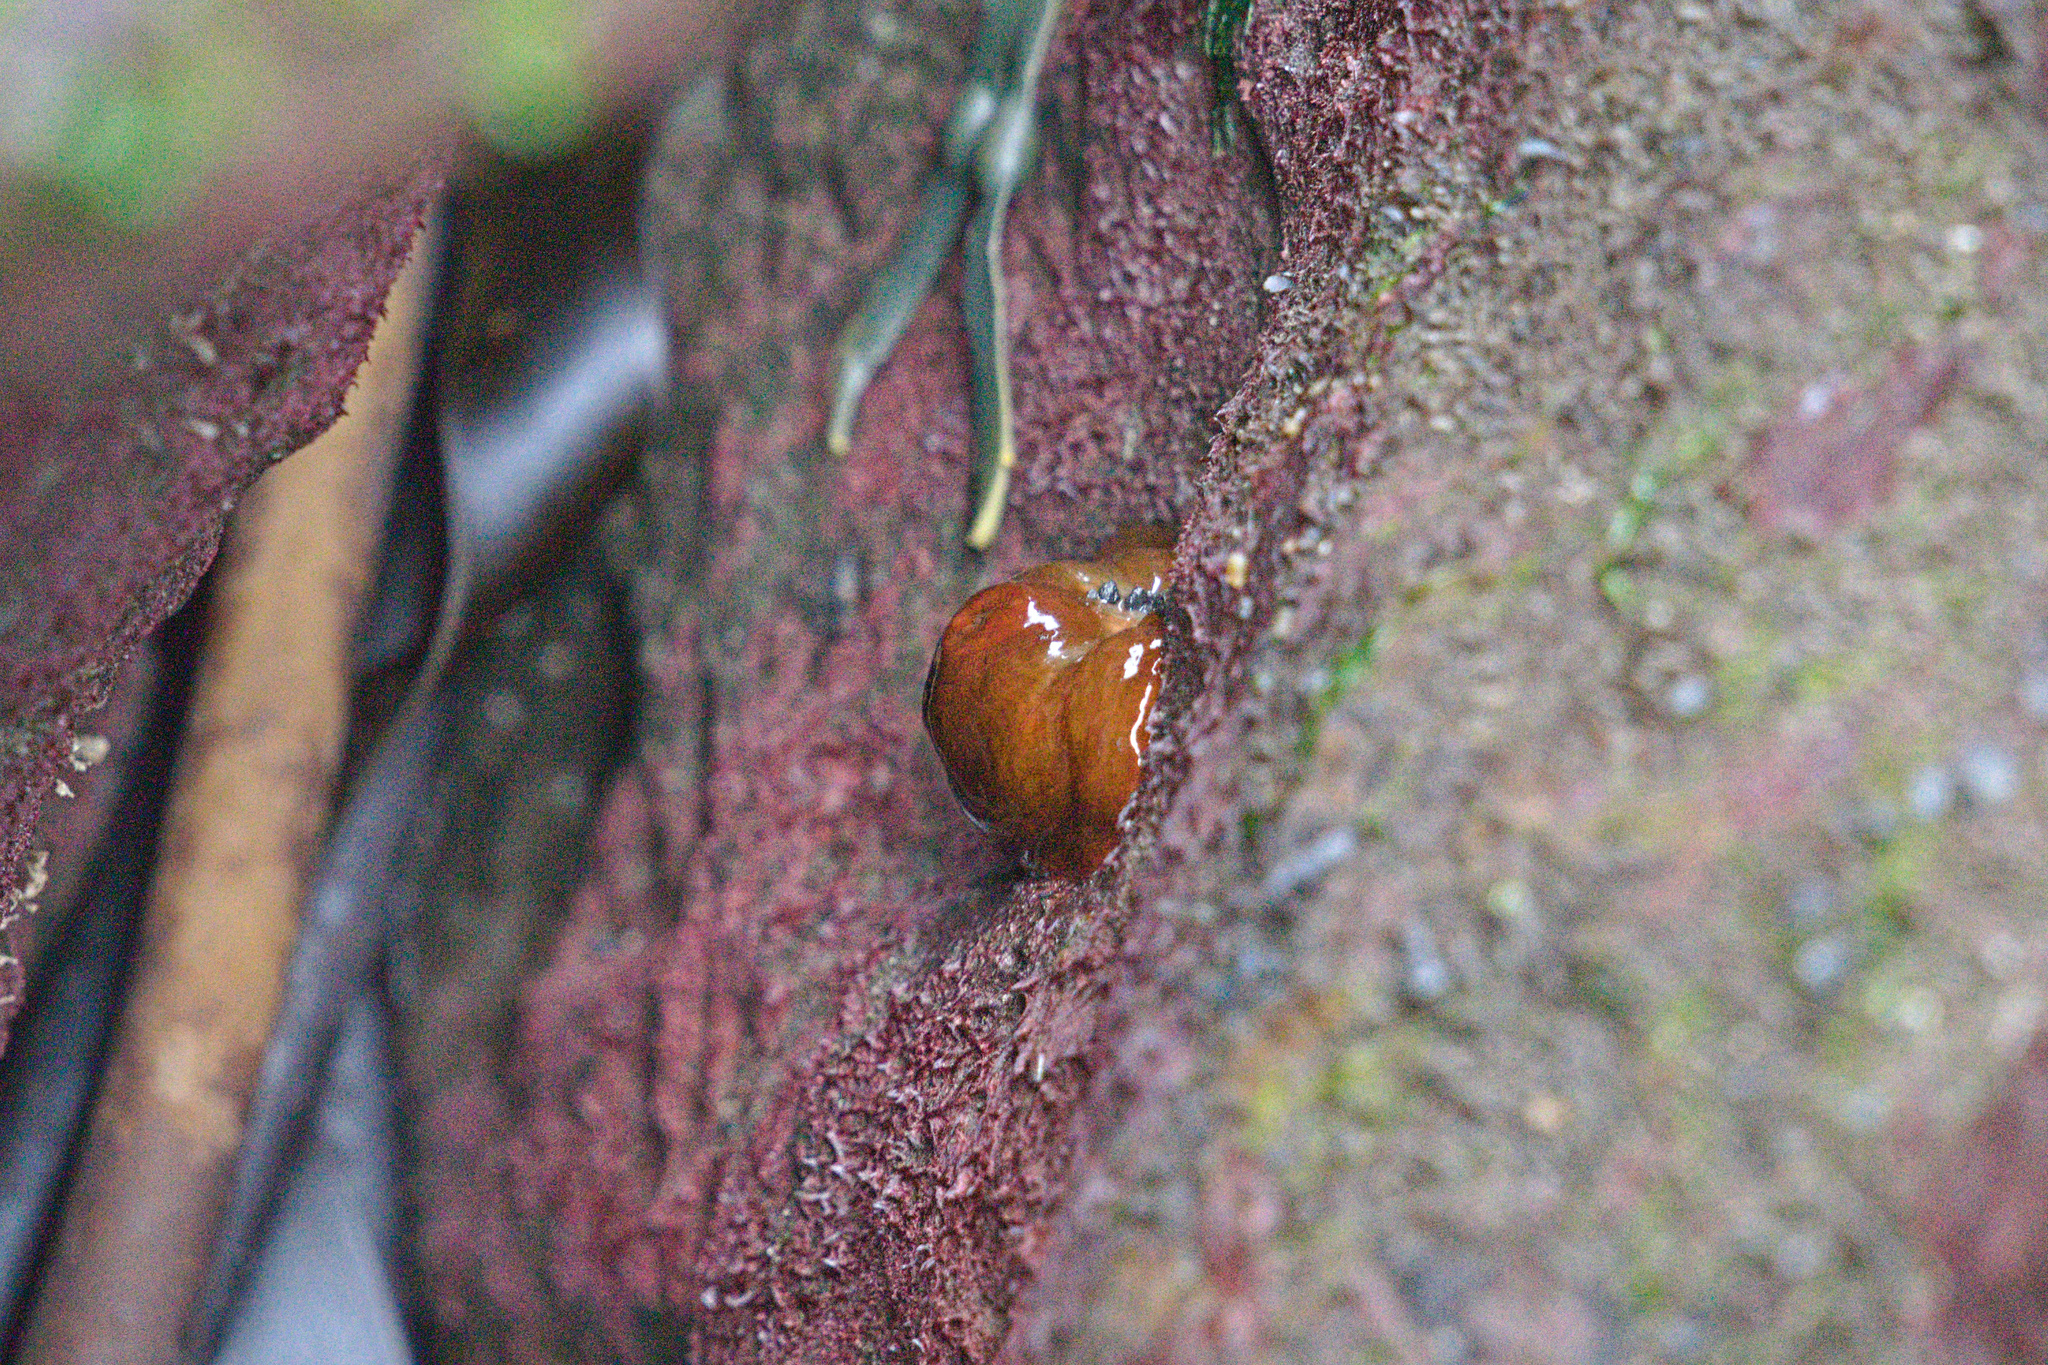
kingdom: Animalia
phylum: Cnidaria
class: Anthozoa
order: Actiniaria
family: Metridiidae
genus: Metridium
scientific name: Metridium senile
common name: Clonal plumose anemone
